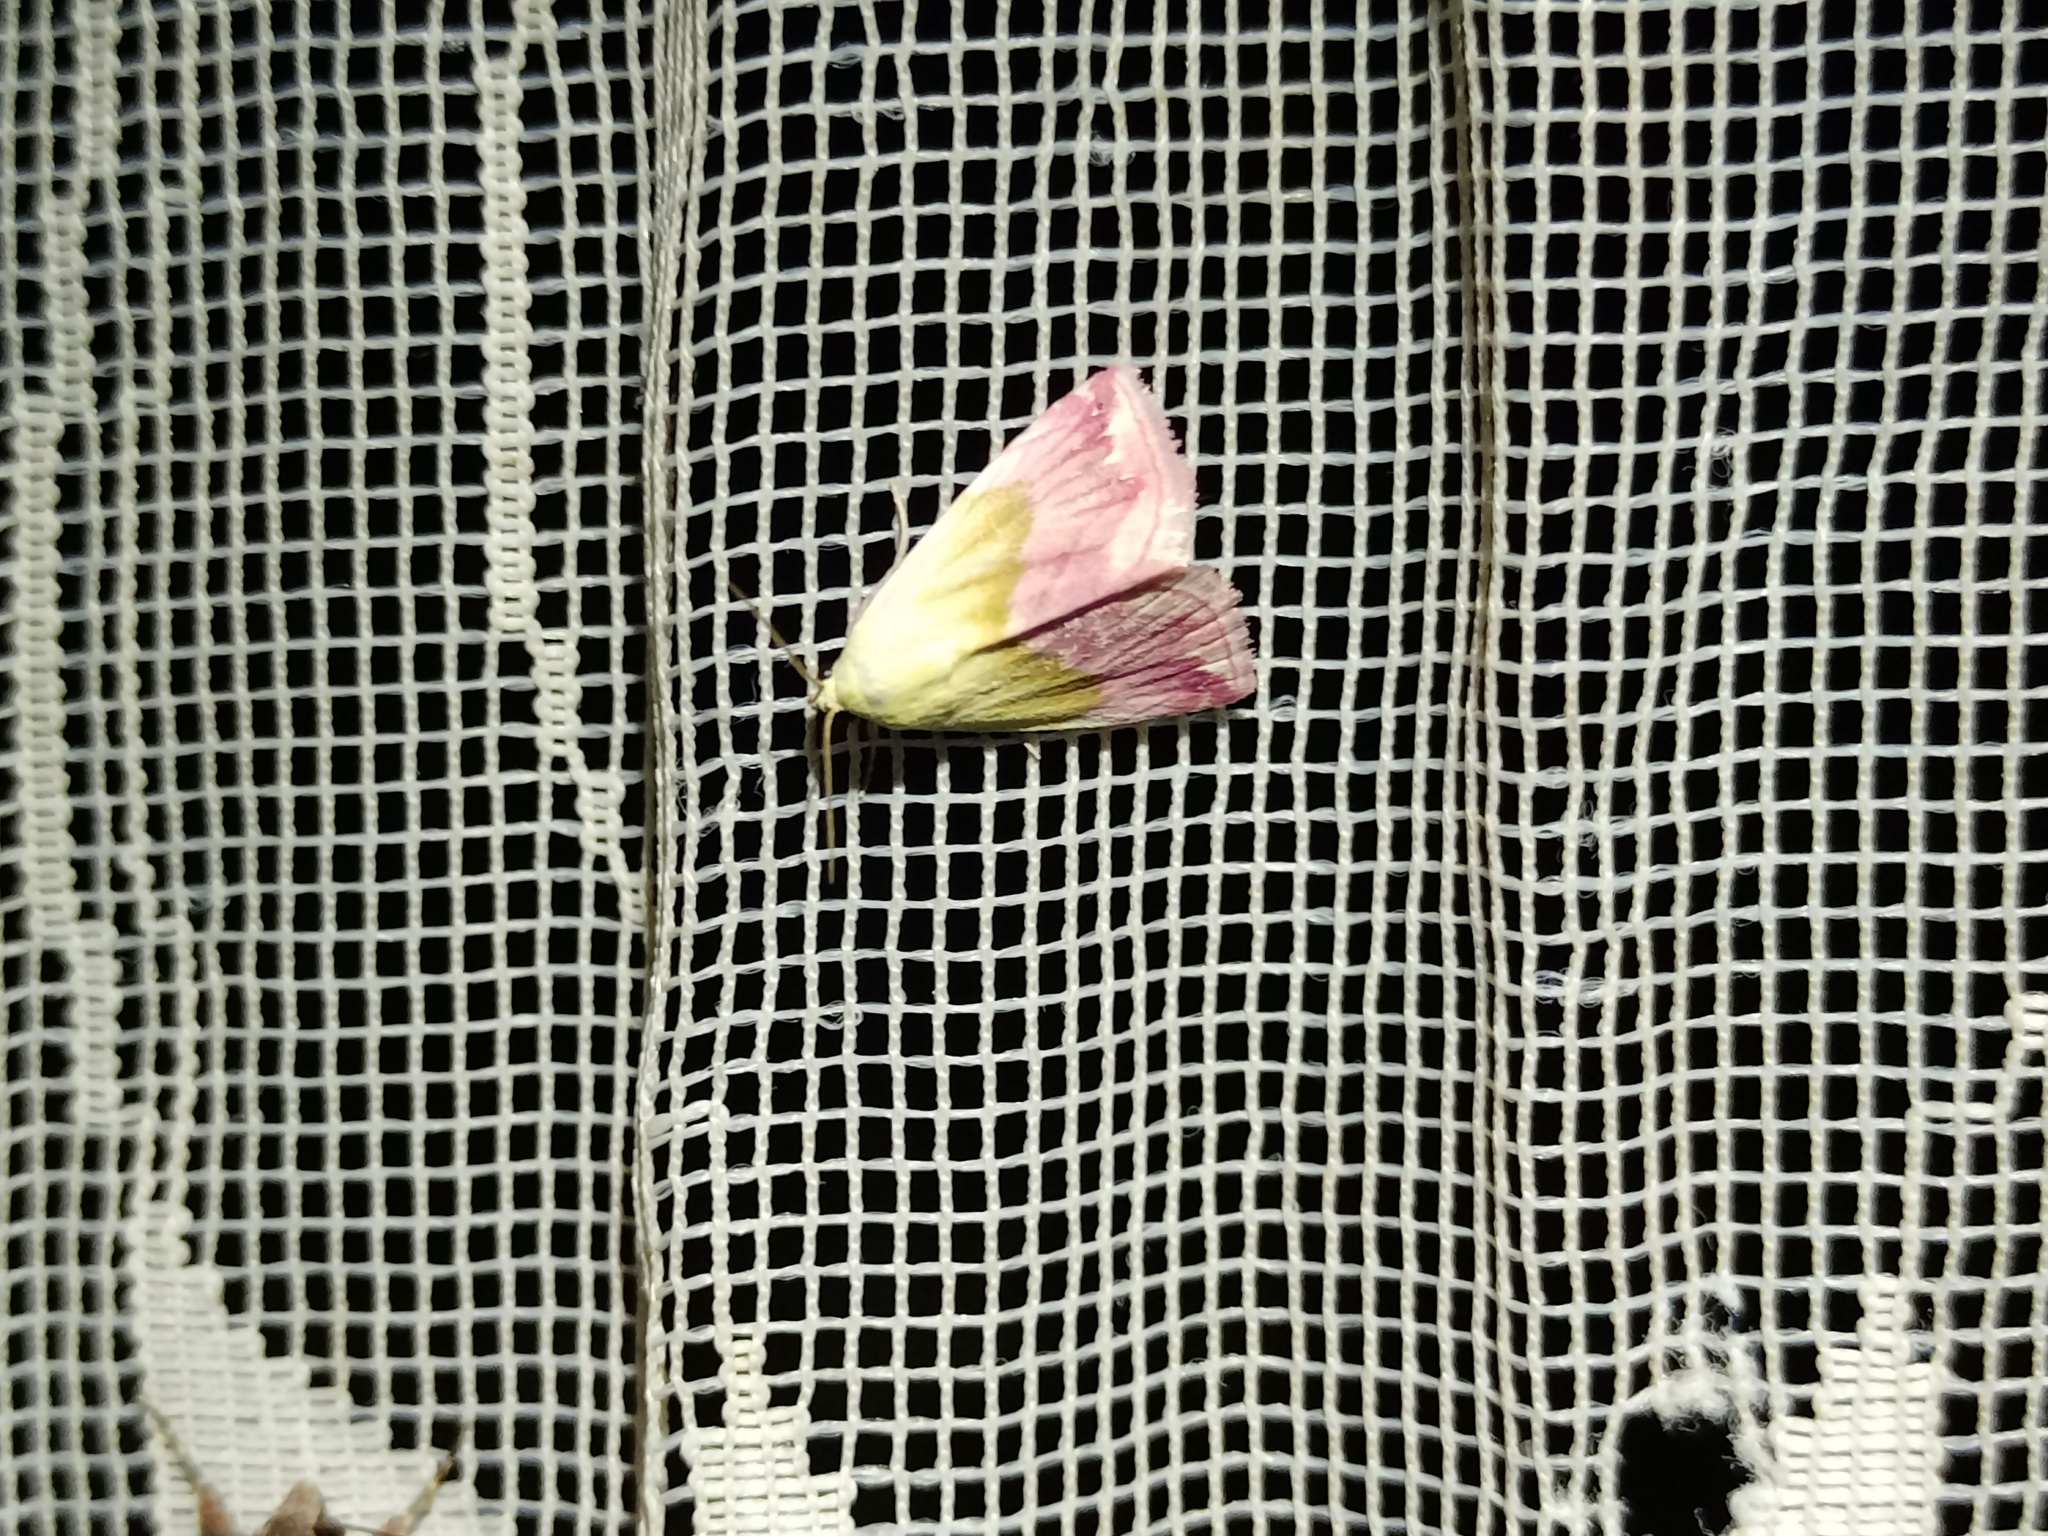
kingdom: Animalia
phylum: Arthropoda
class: Insecta
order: Lepidoptera
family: Noctuidae
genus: Eublemma
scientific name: Eublemma purpurina
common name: Beautiful marbled
